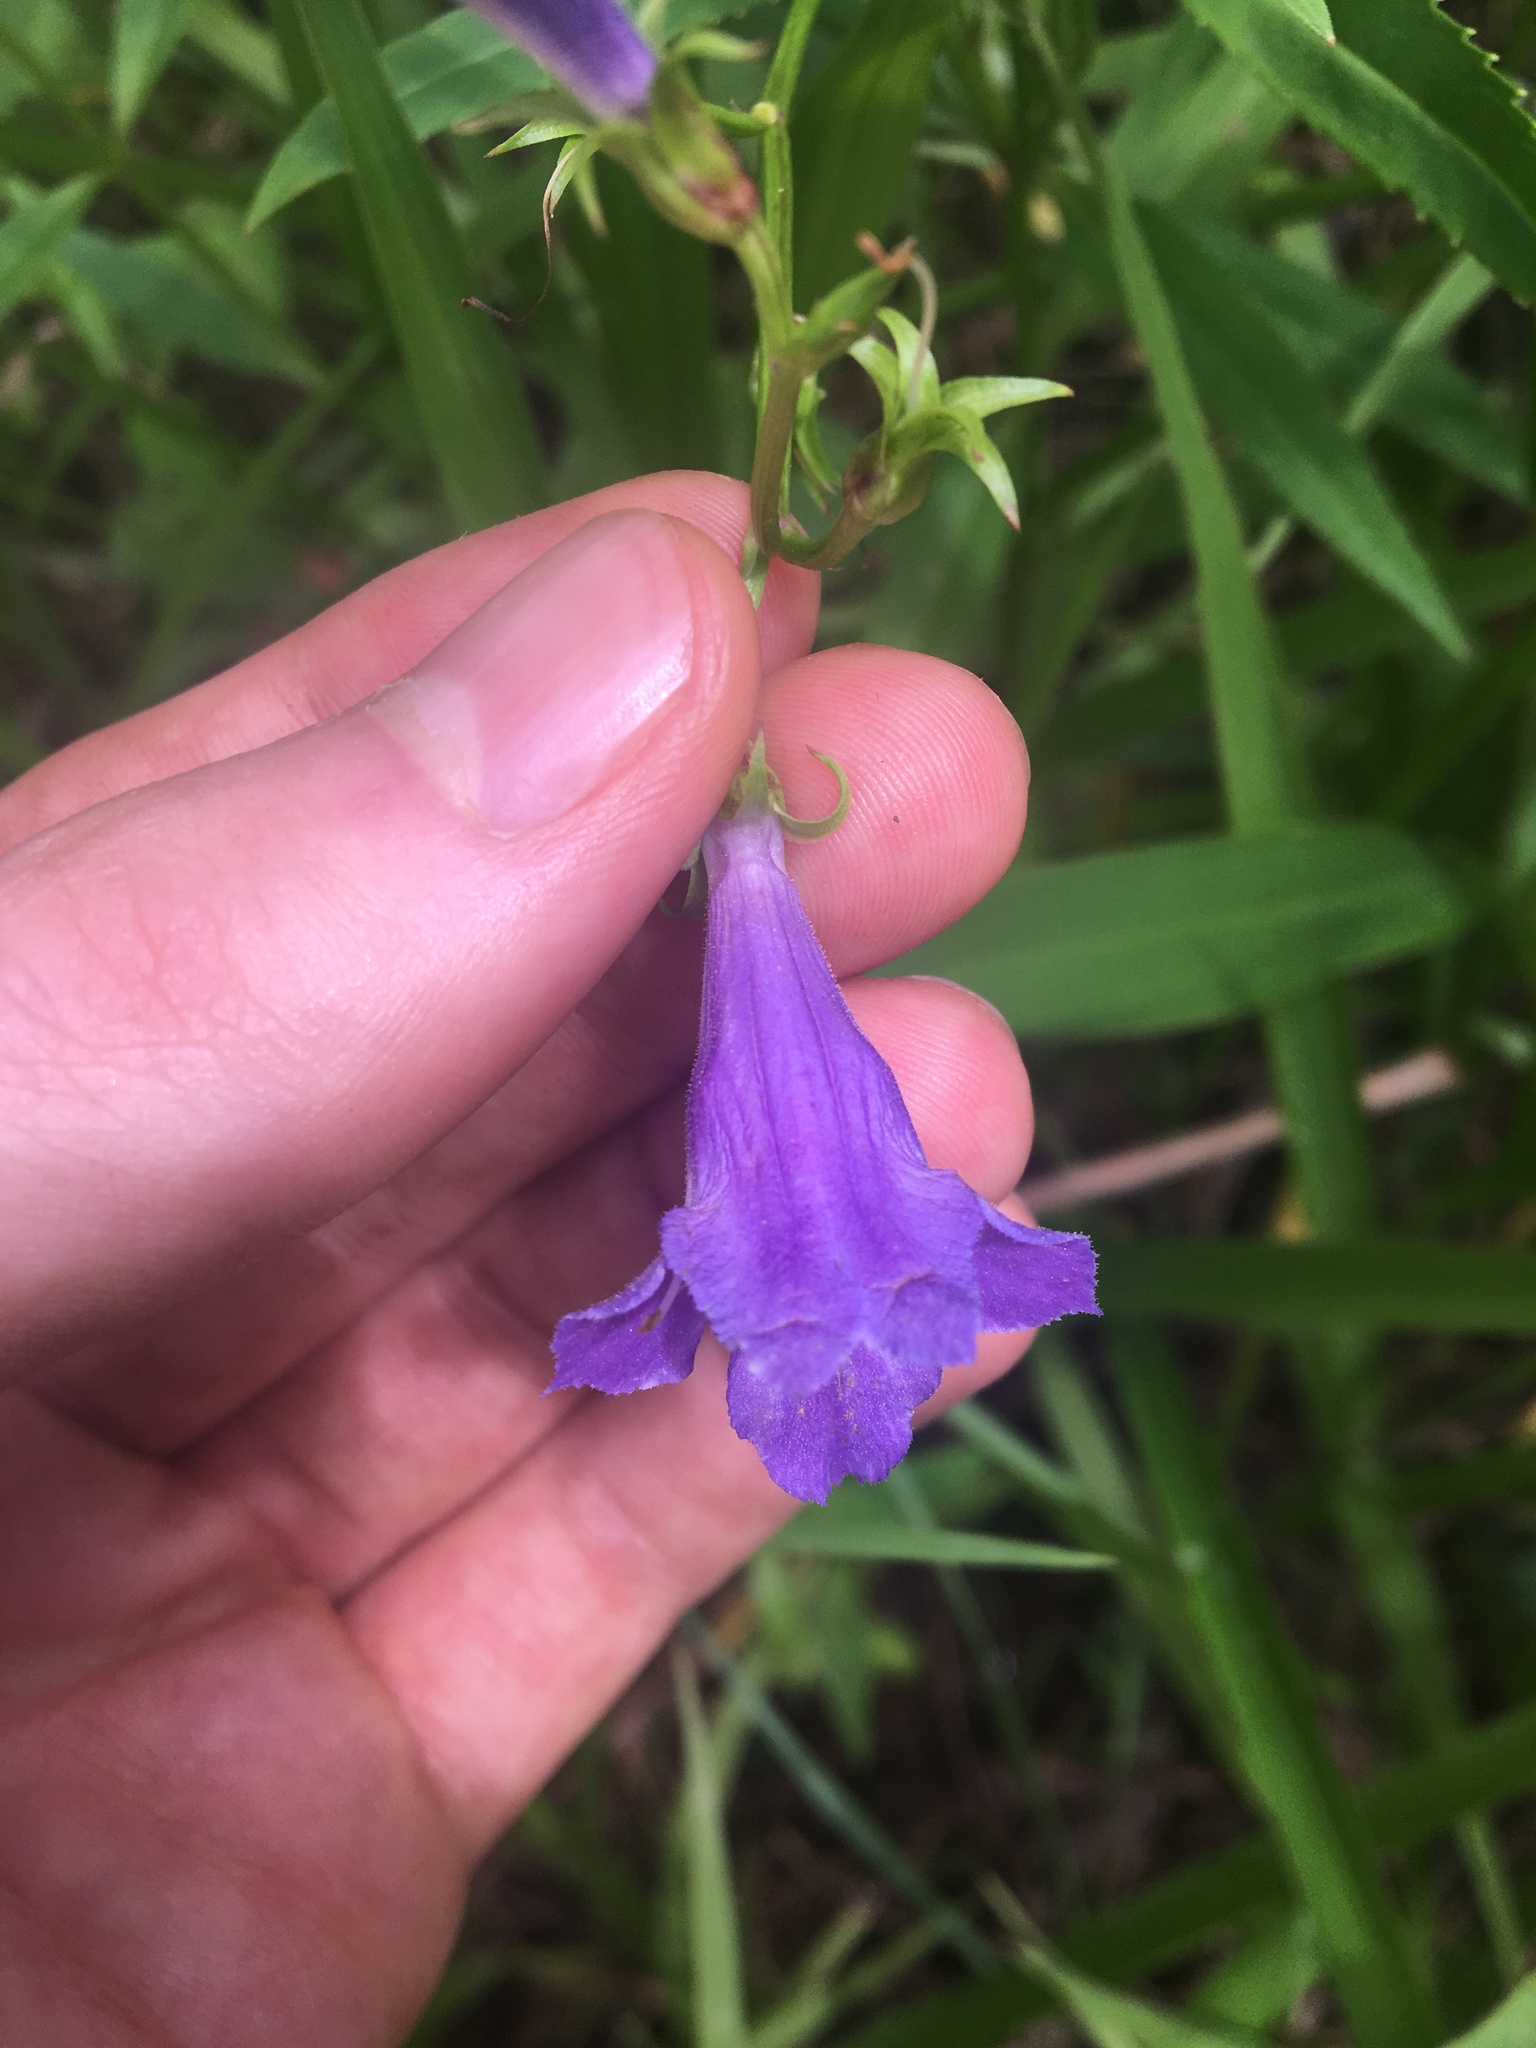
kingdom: Plantae
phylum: Tracheophyta
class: Magnoliopsida
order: Lamiales
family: Linderniaceae
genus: Artanema
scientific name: Artanema fimbriatum
